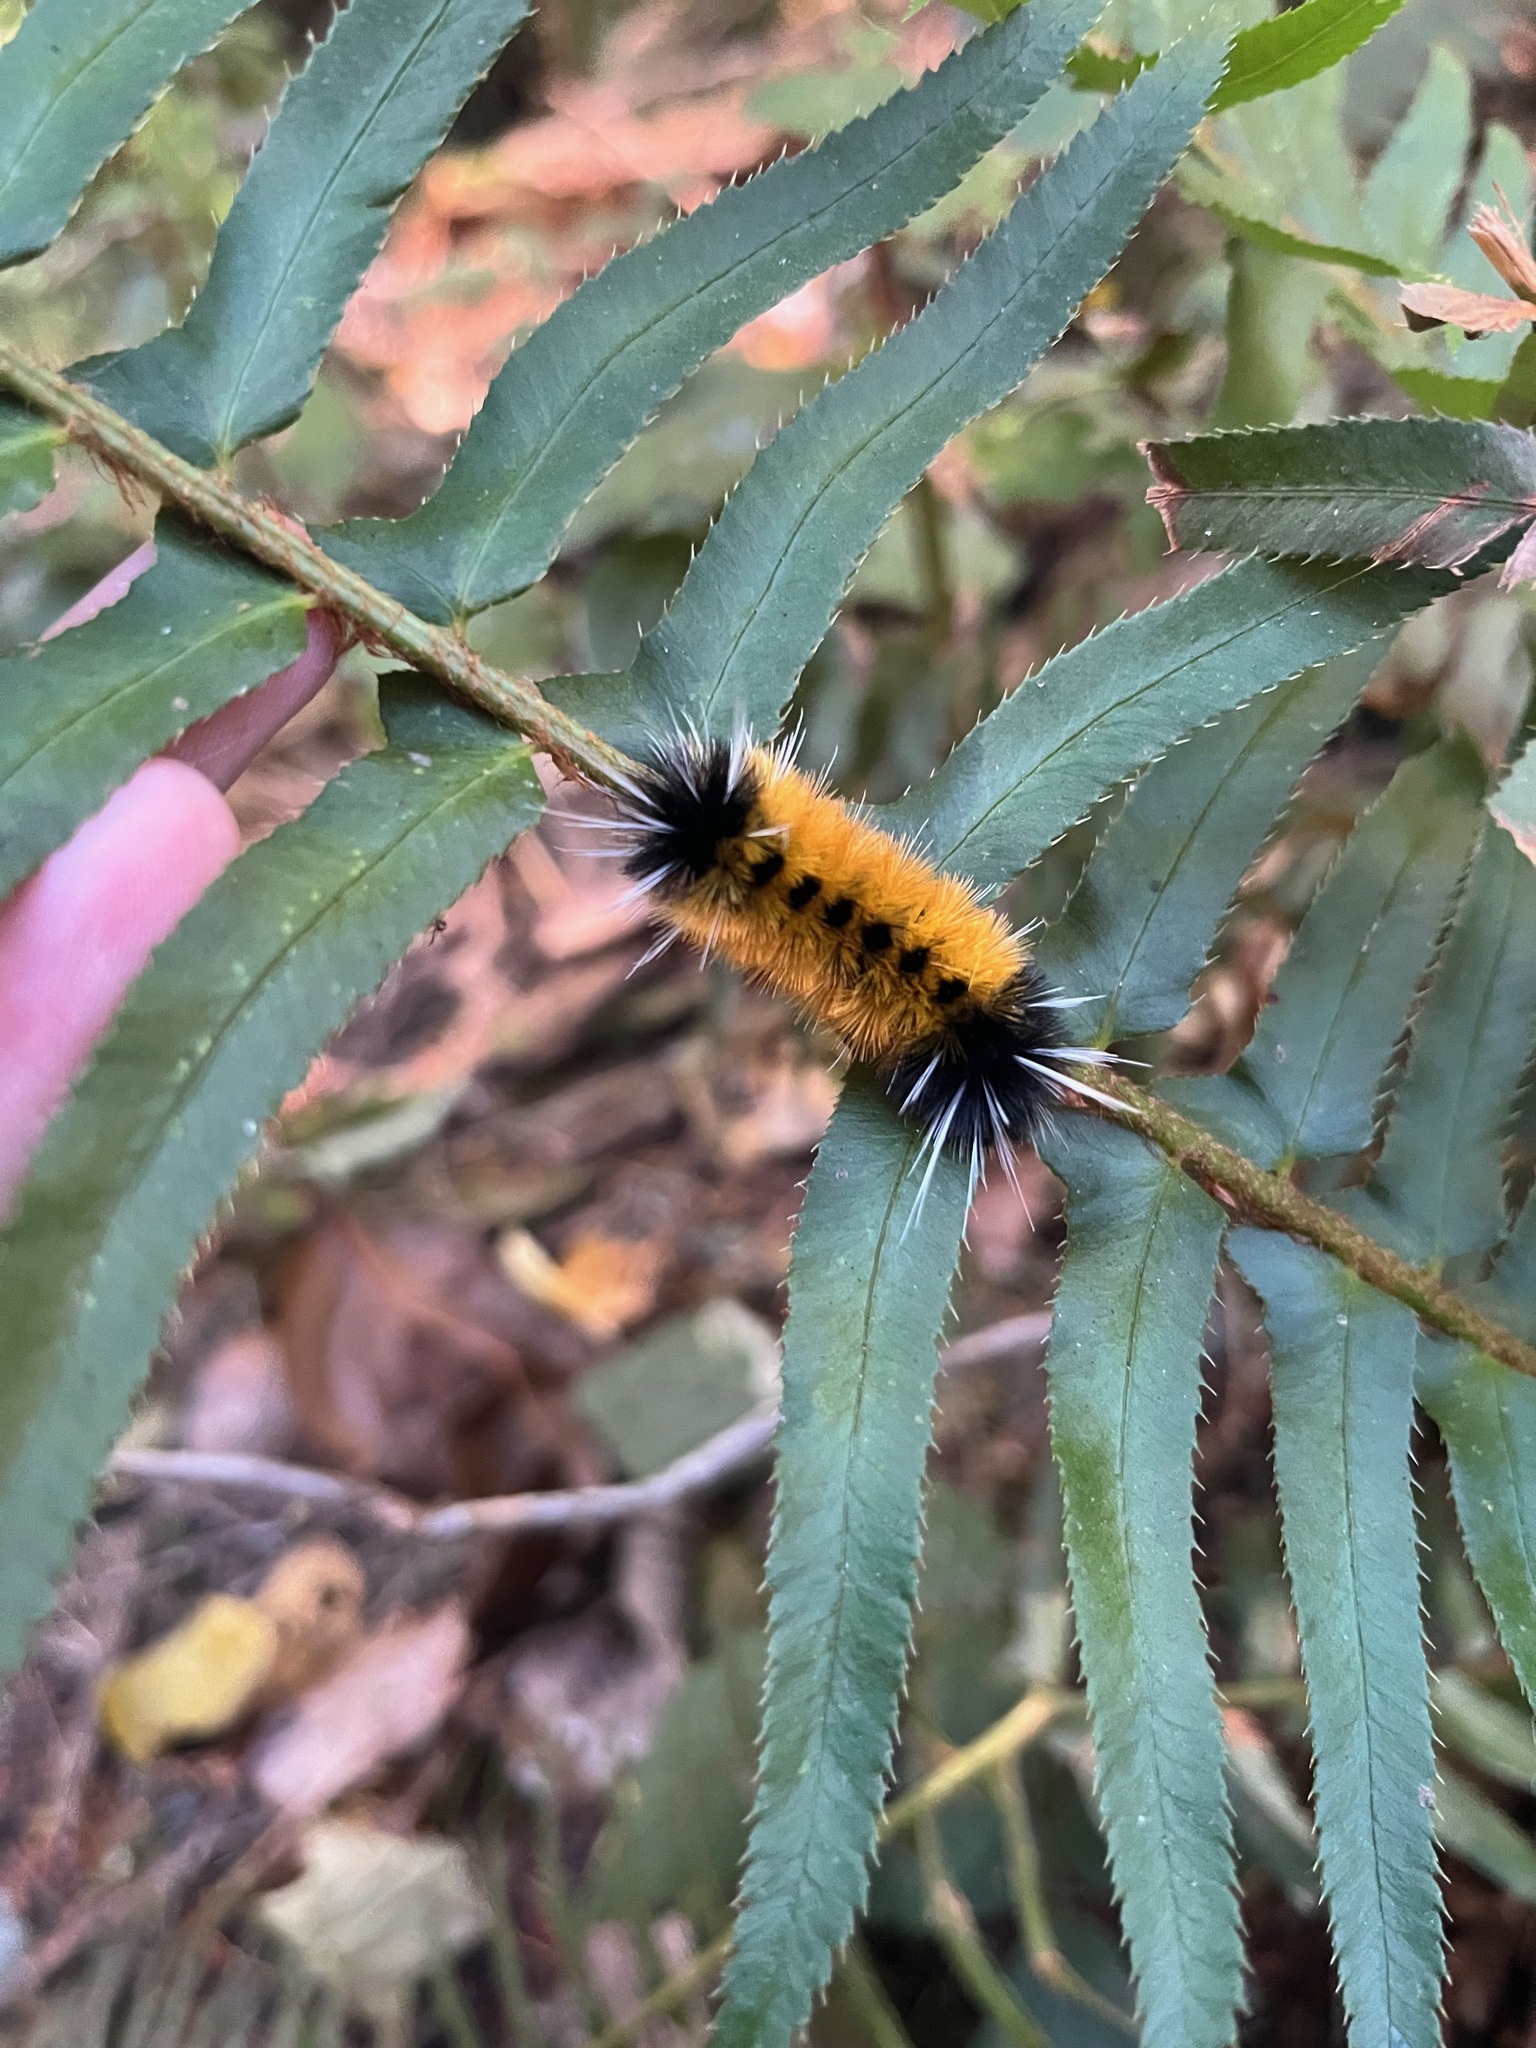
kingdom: Animalia
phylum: Arthropoda
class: Insecta
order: Lepidoptera
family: Erebidae
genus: Lophocampa
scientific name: Lophocampa maculata
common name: Spotted tussock moth
